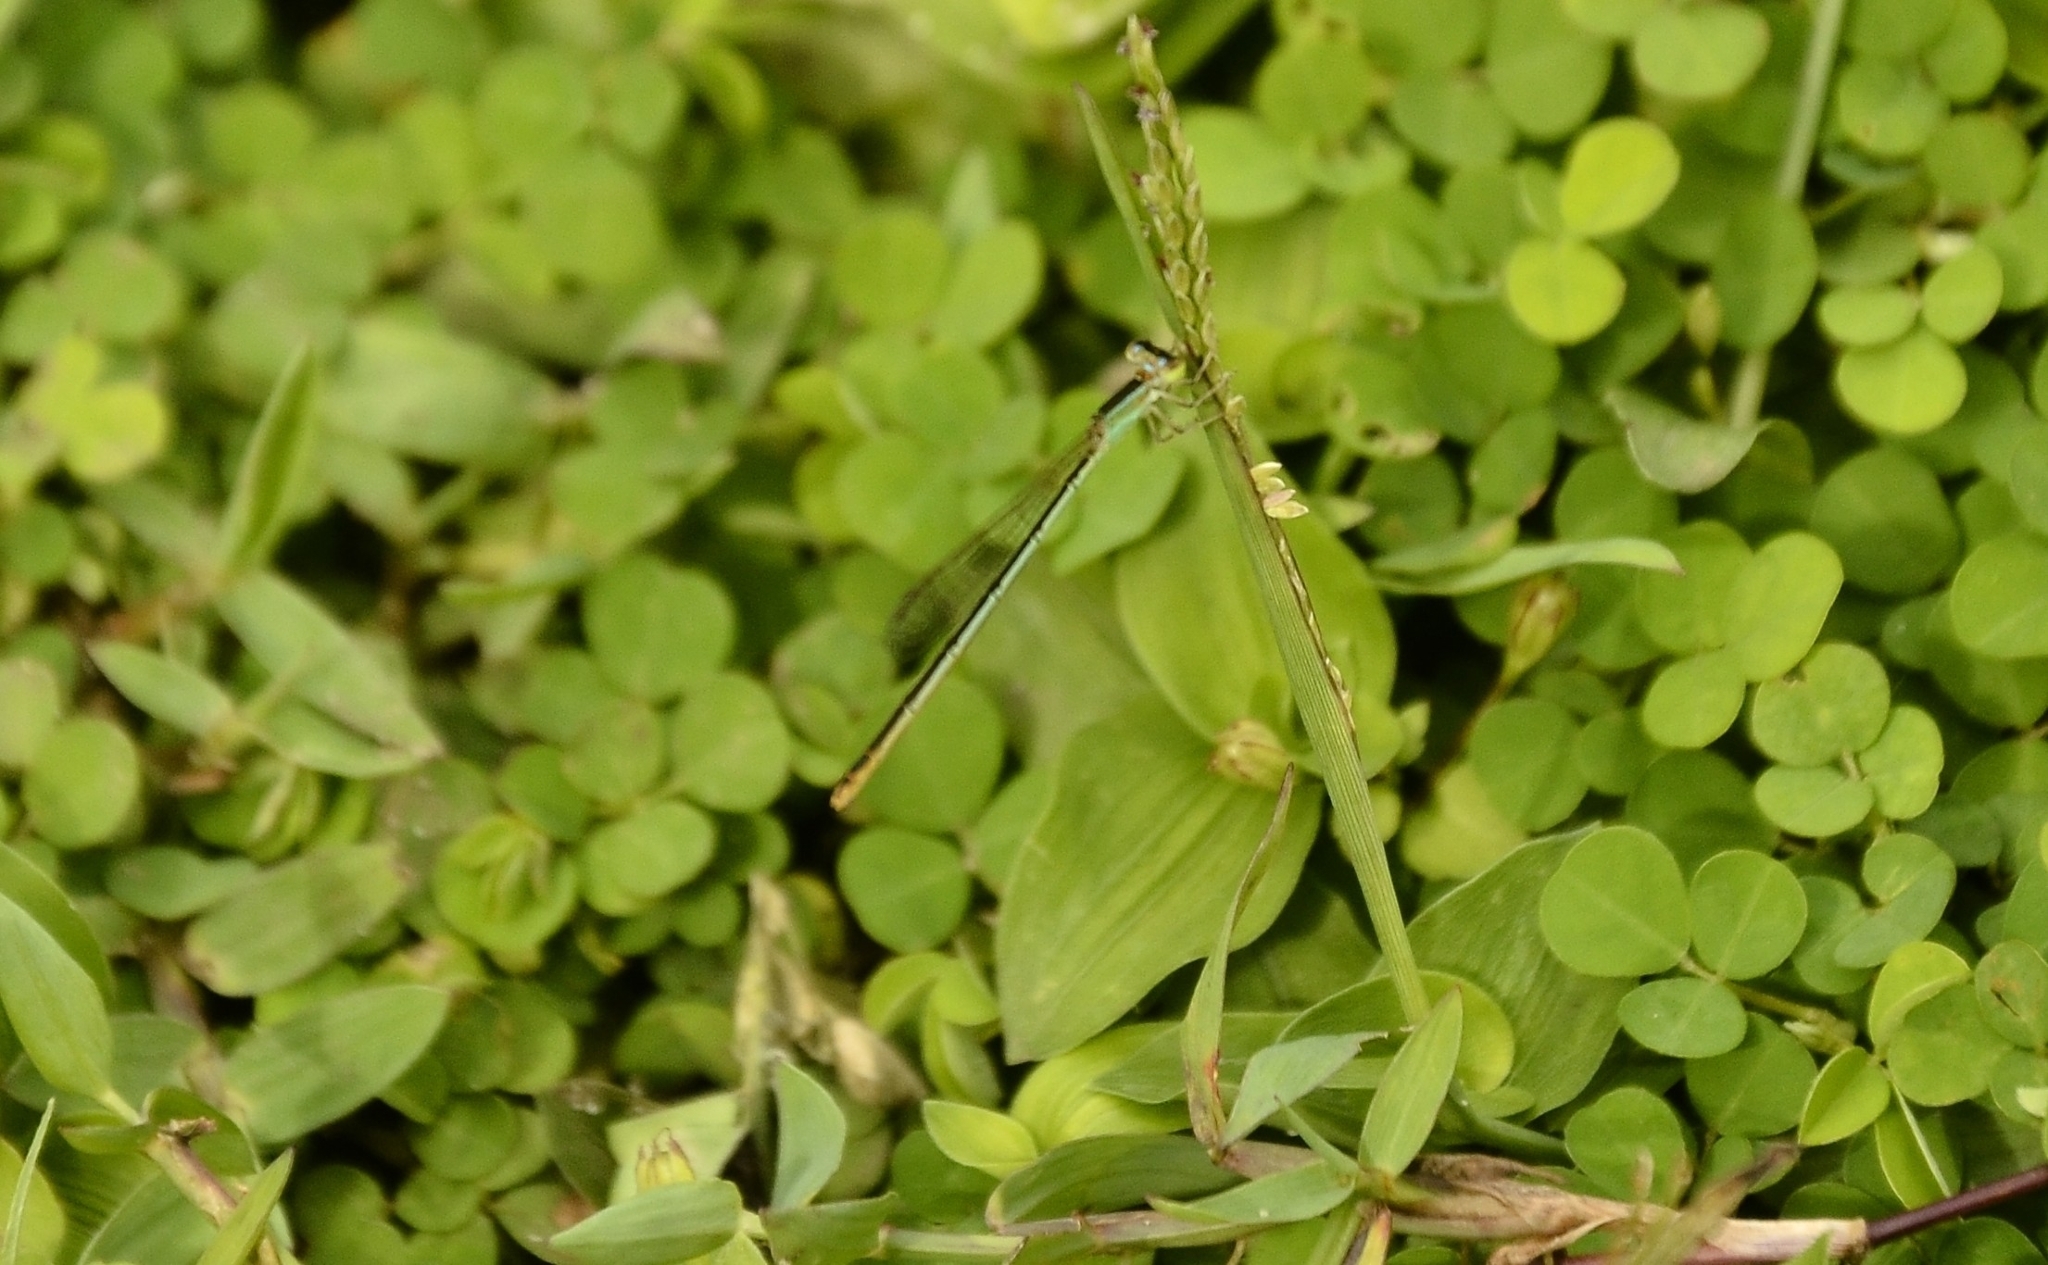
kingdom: Animalia
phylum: Arthropoda
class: Insecta
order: Odonata
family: Coenagrionidae
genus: Agriocnemis
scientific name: Agriocnemis pygmaea
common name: Pygmy wisp
